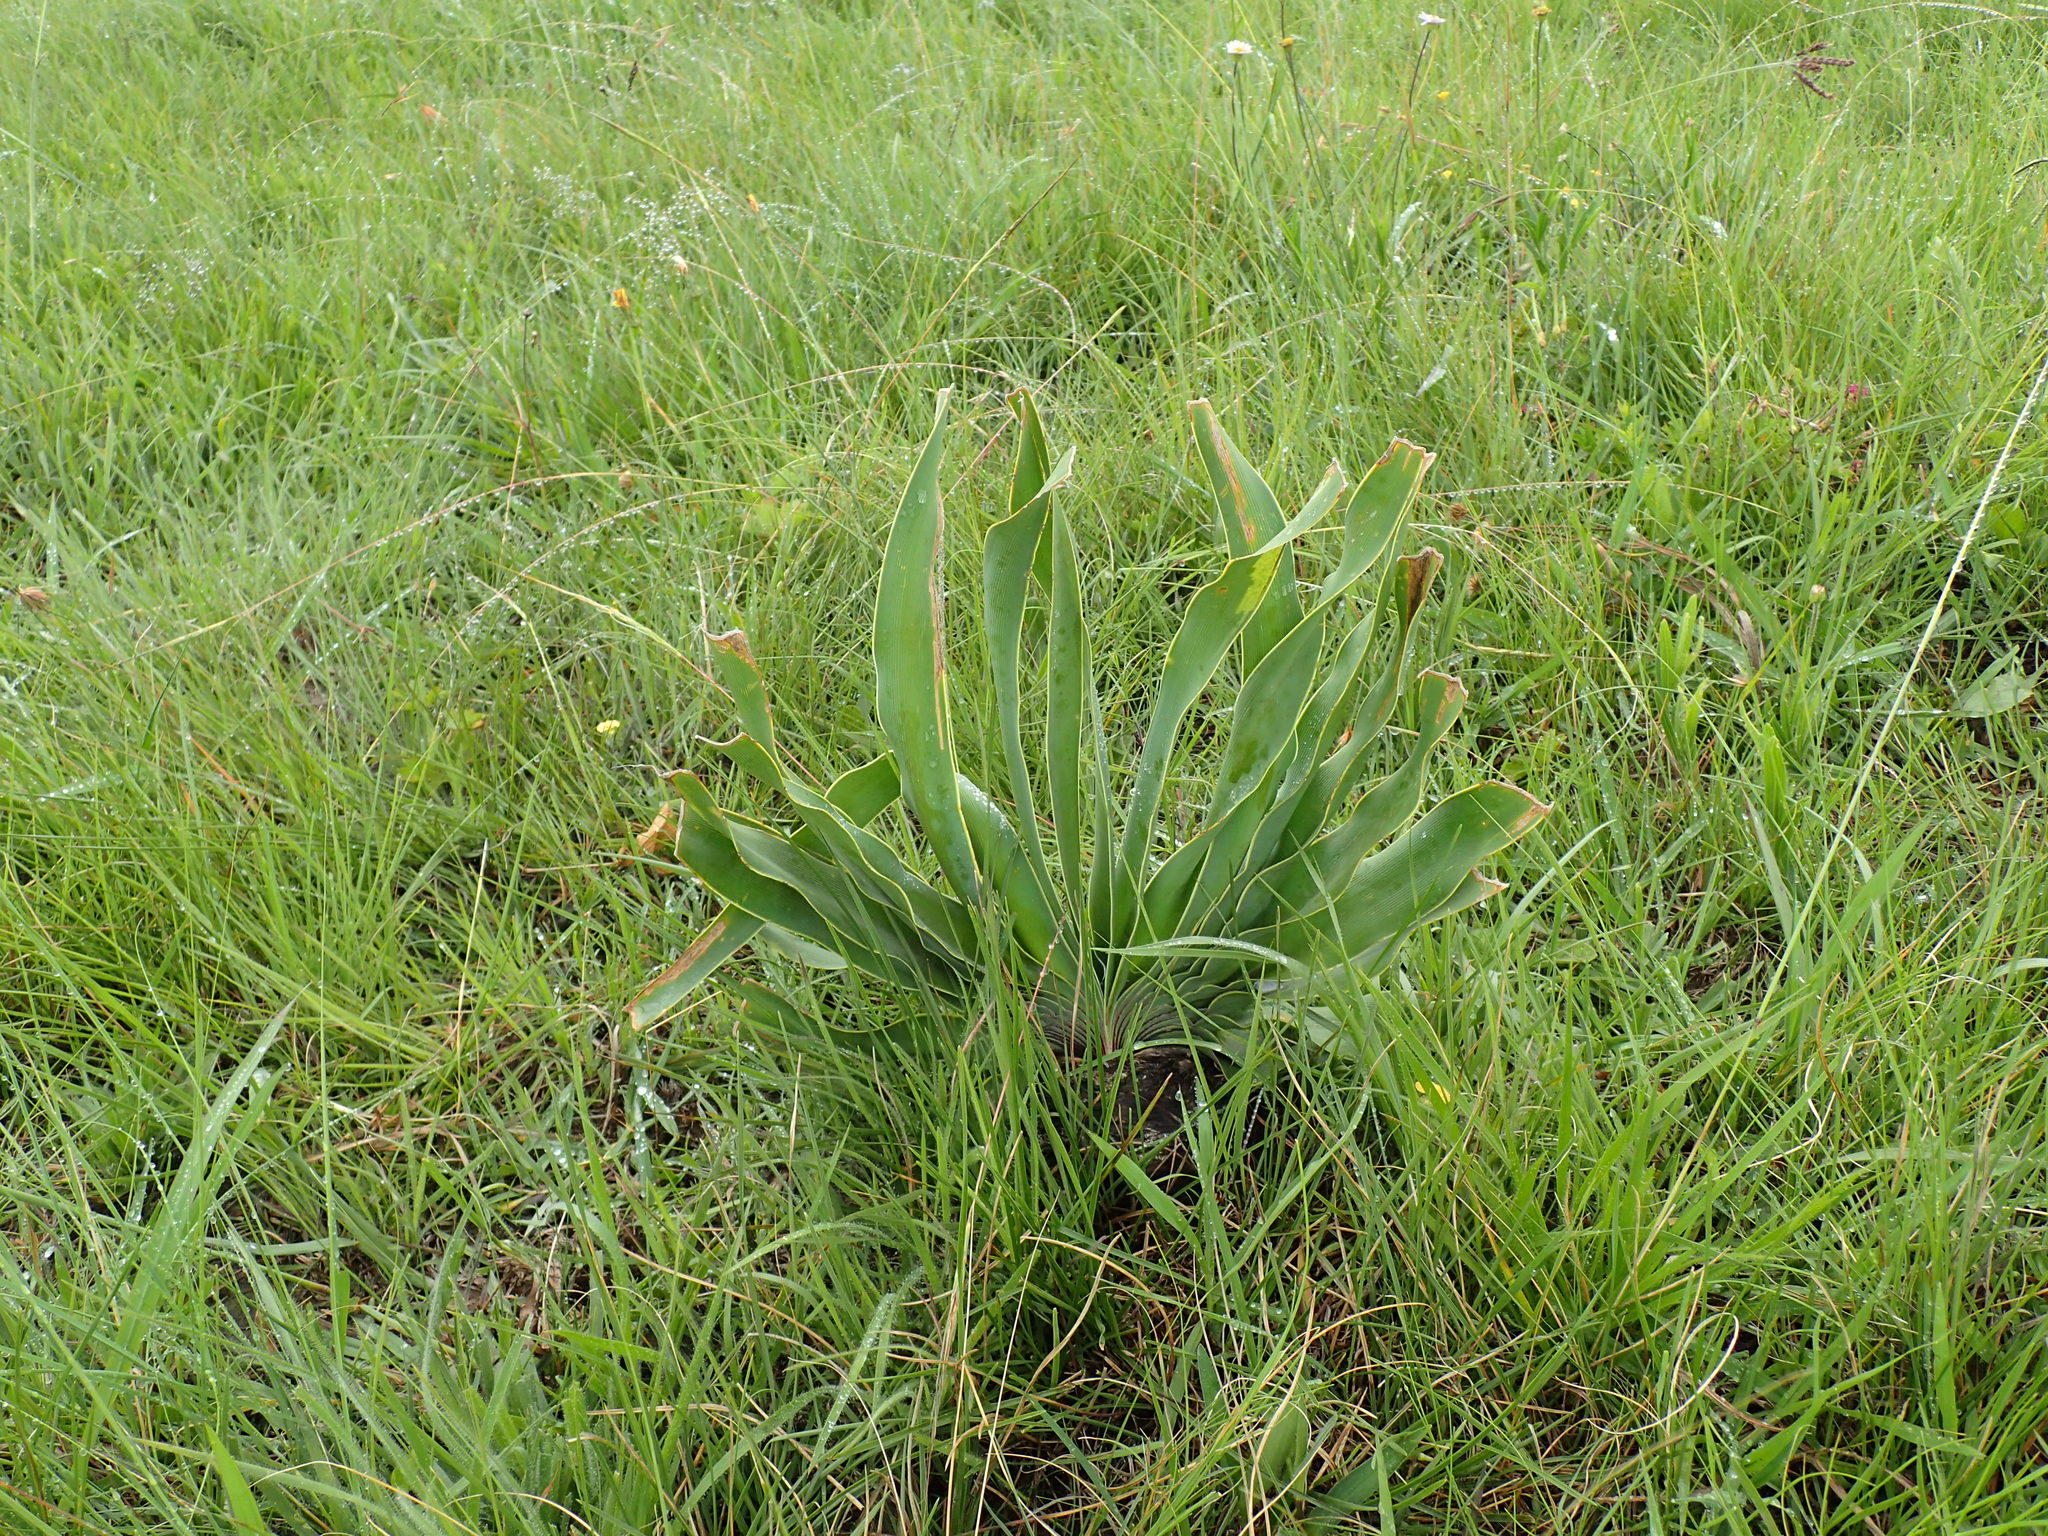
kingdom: Plantae
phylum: Tracheophyta
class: Liliopsida
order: Asparagales
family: Amaryllidaceae
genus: Boophone
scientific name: Boophone disticha
